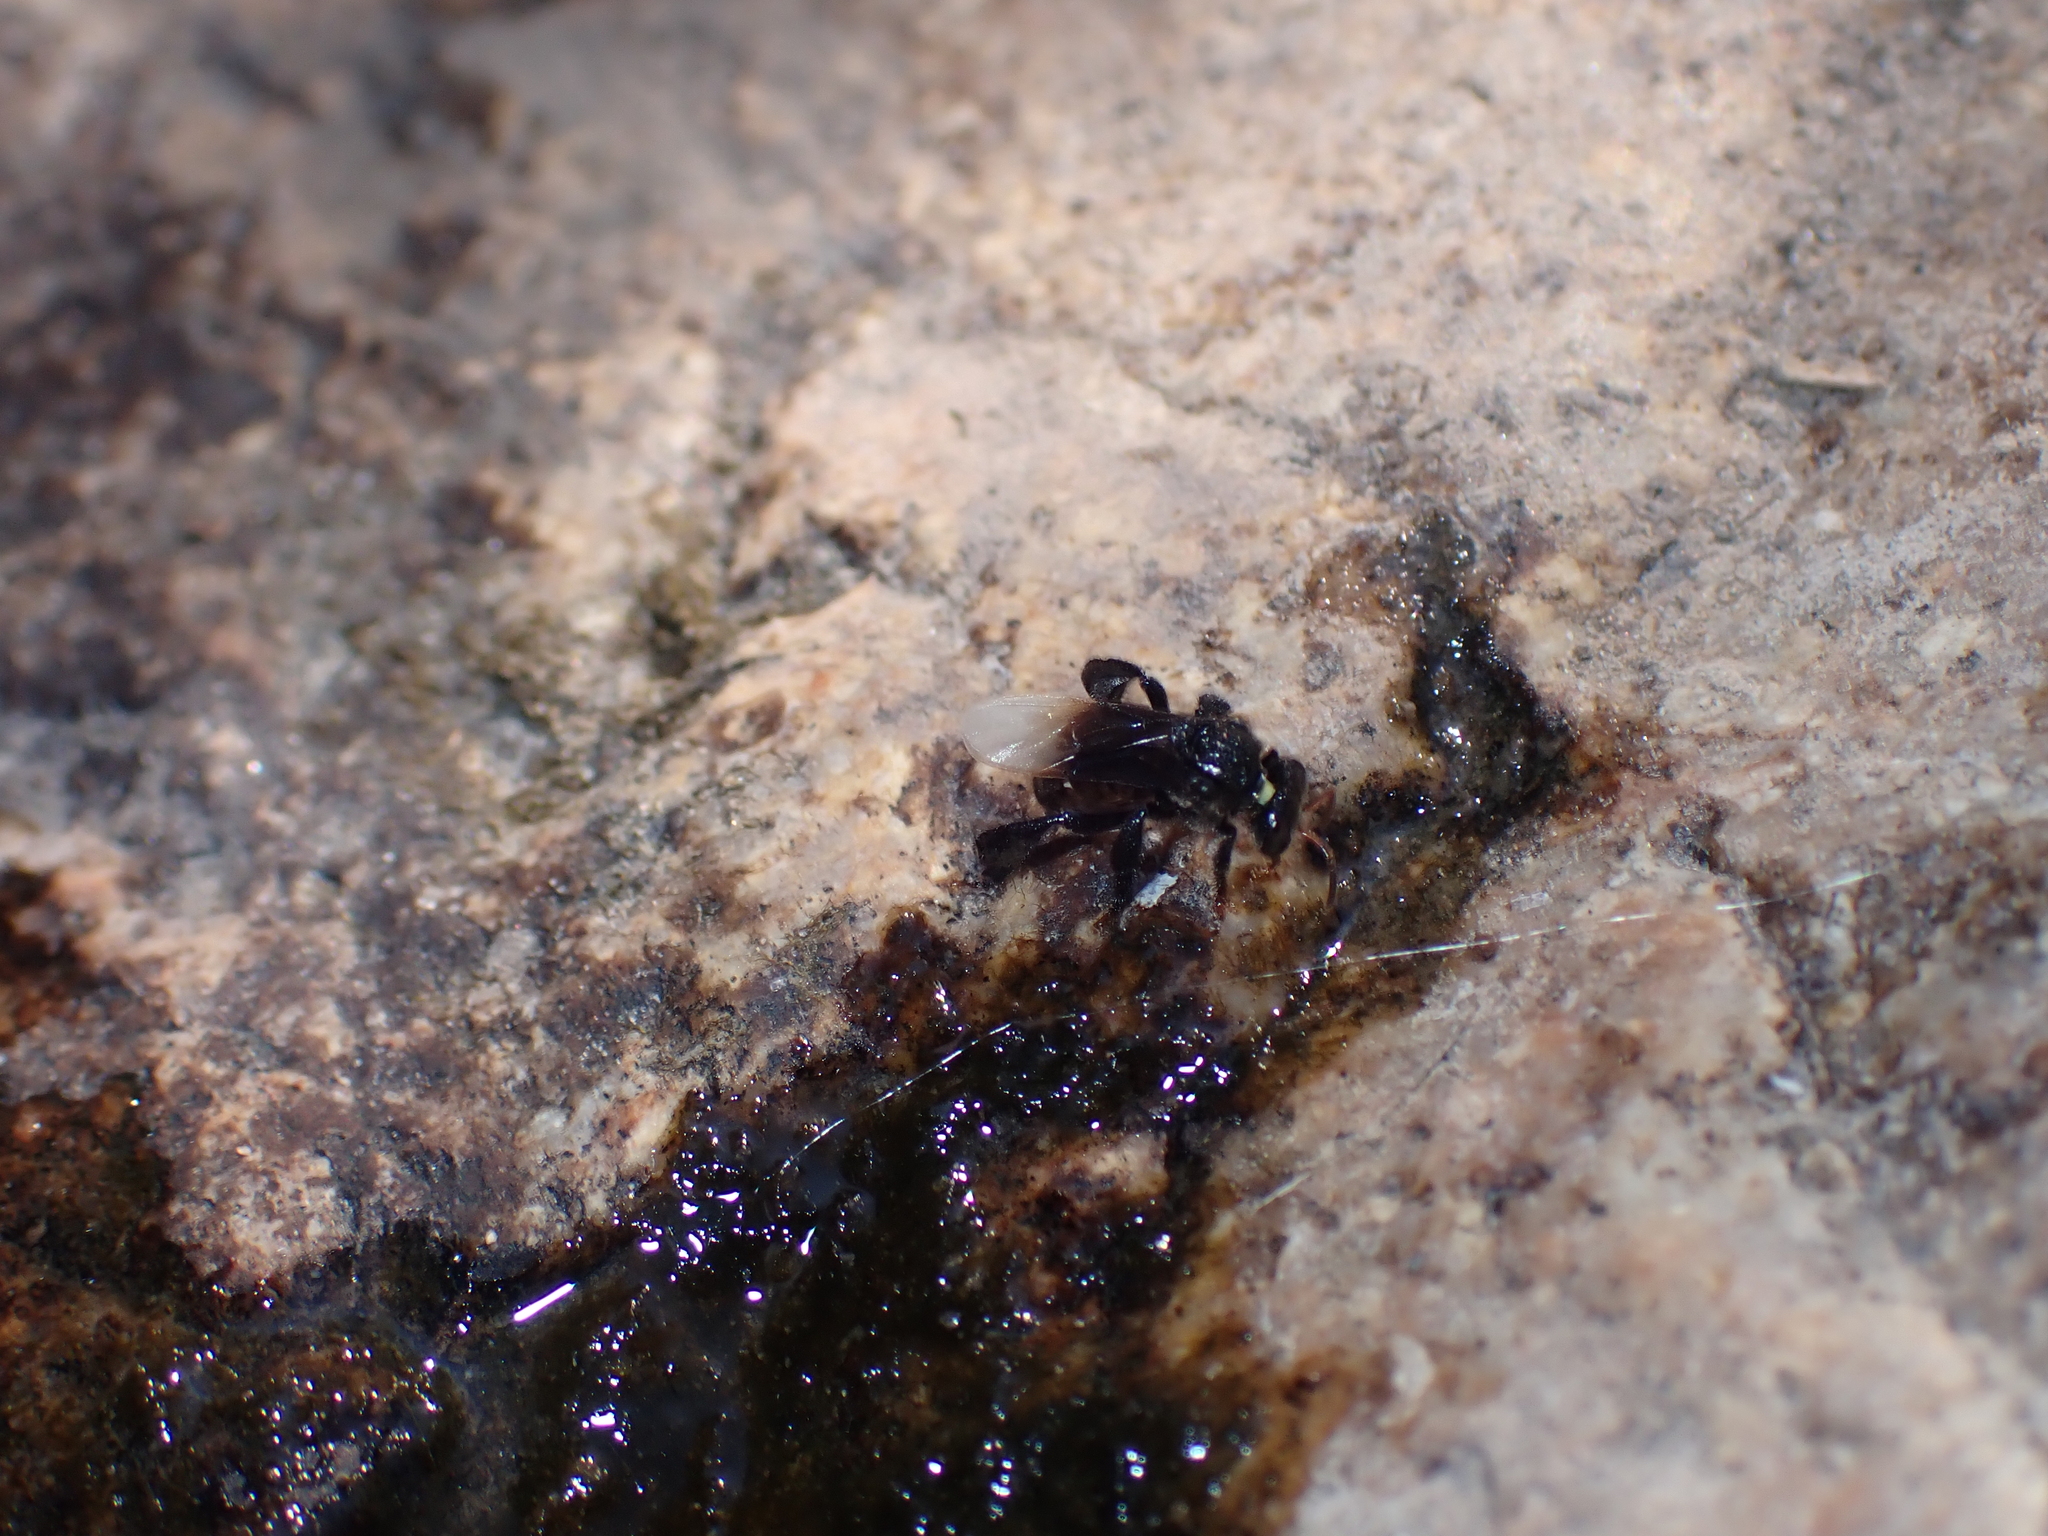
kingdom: Animalia
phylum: Arthropoda
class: Insecta
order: Hymenoptera
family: Apidae
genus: Tetragonula
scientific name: Tetragonula collina
